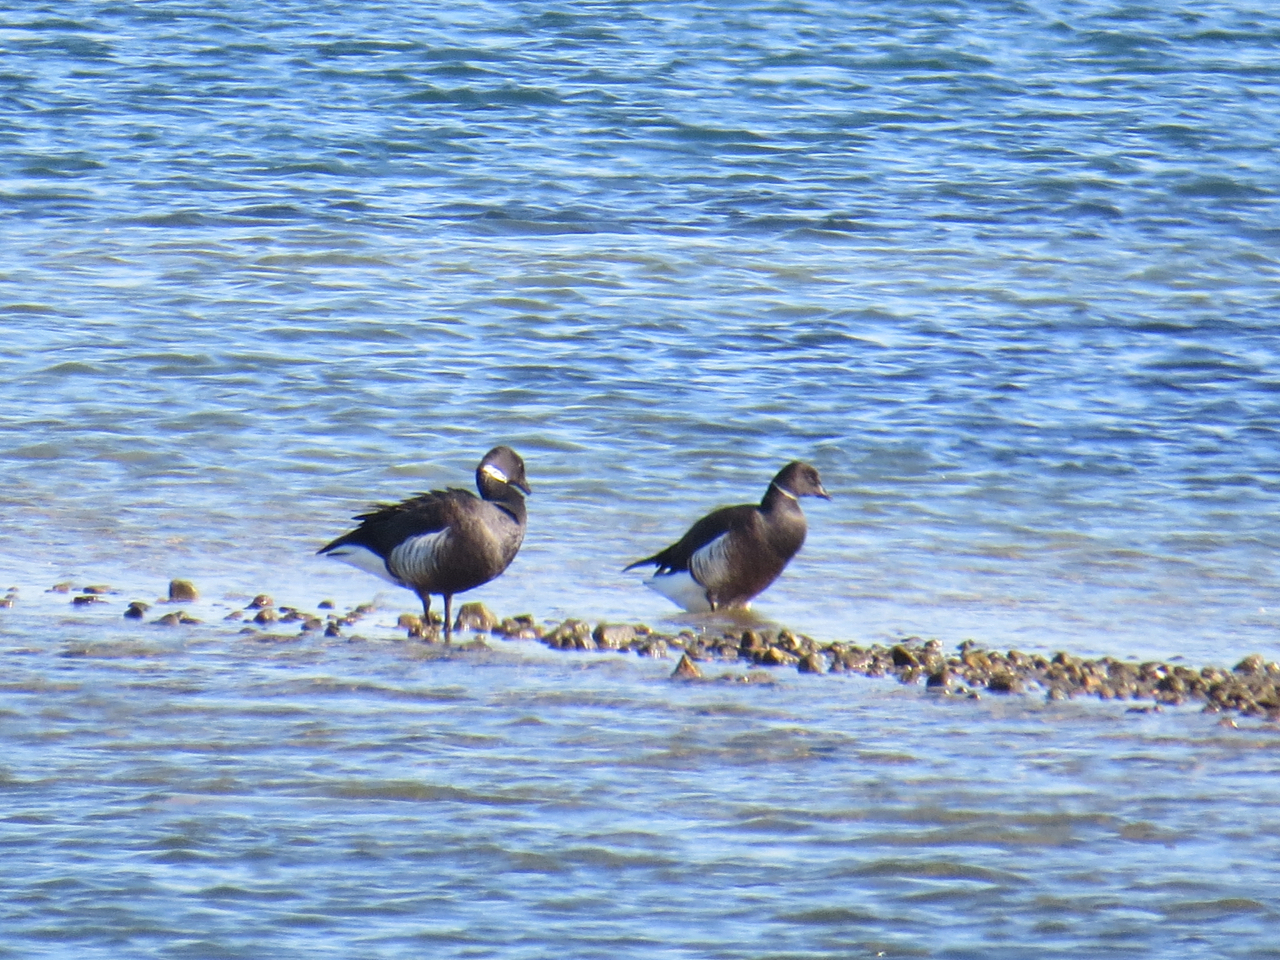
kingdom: Animalia
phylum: Chordata
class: Aves
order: Anseriformes
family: Anatidae
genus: Branta
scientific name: Branta bernicla
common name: Brant goose
